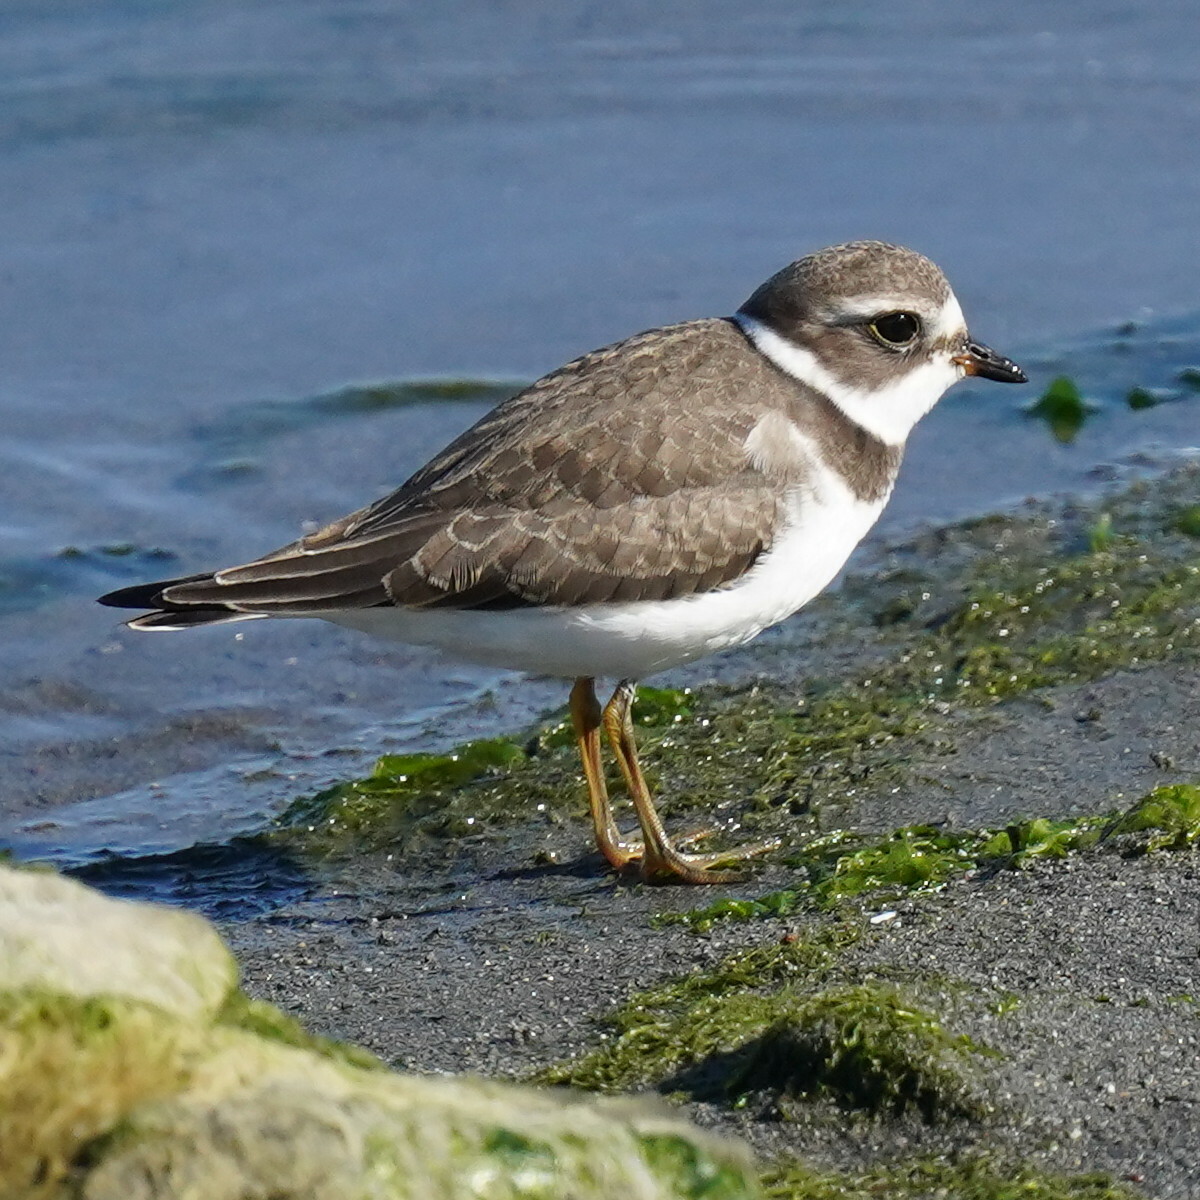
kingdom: Animalia
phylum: Chordata
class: Aves
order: Charadriiformes
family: Charadriidae
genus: Charadrius
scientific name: Charadrius semipalmatus
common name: Semipalmated plover
